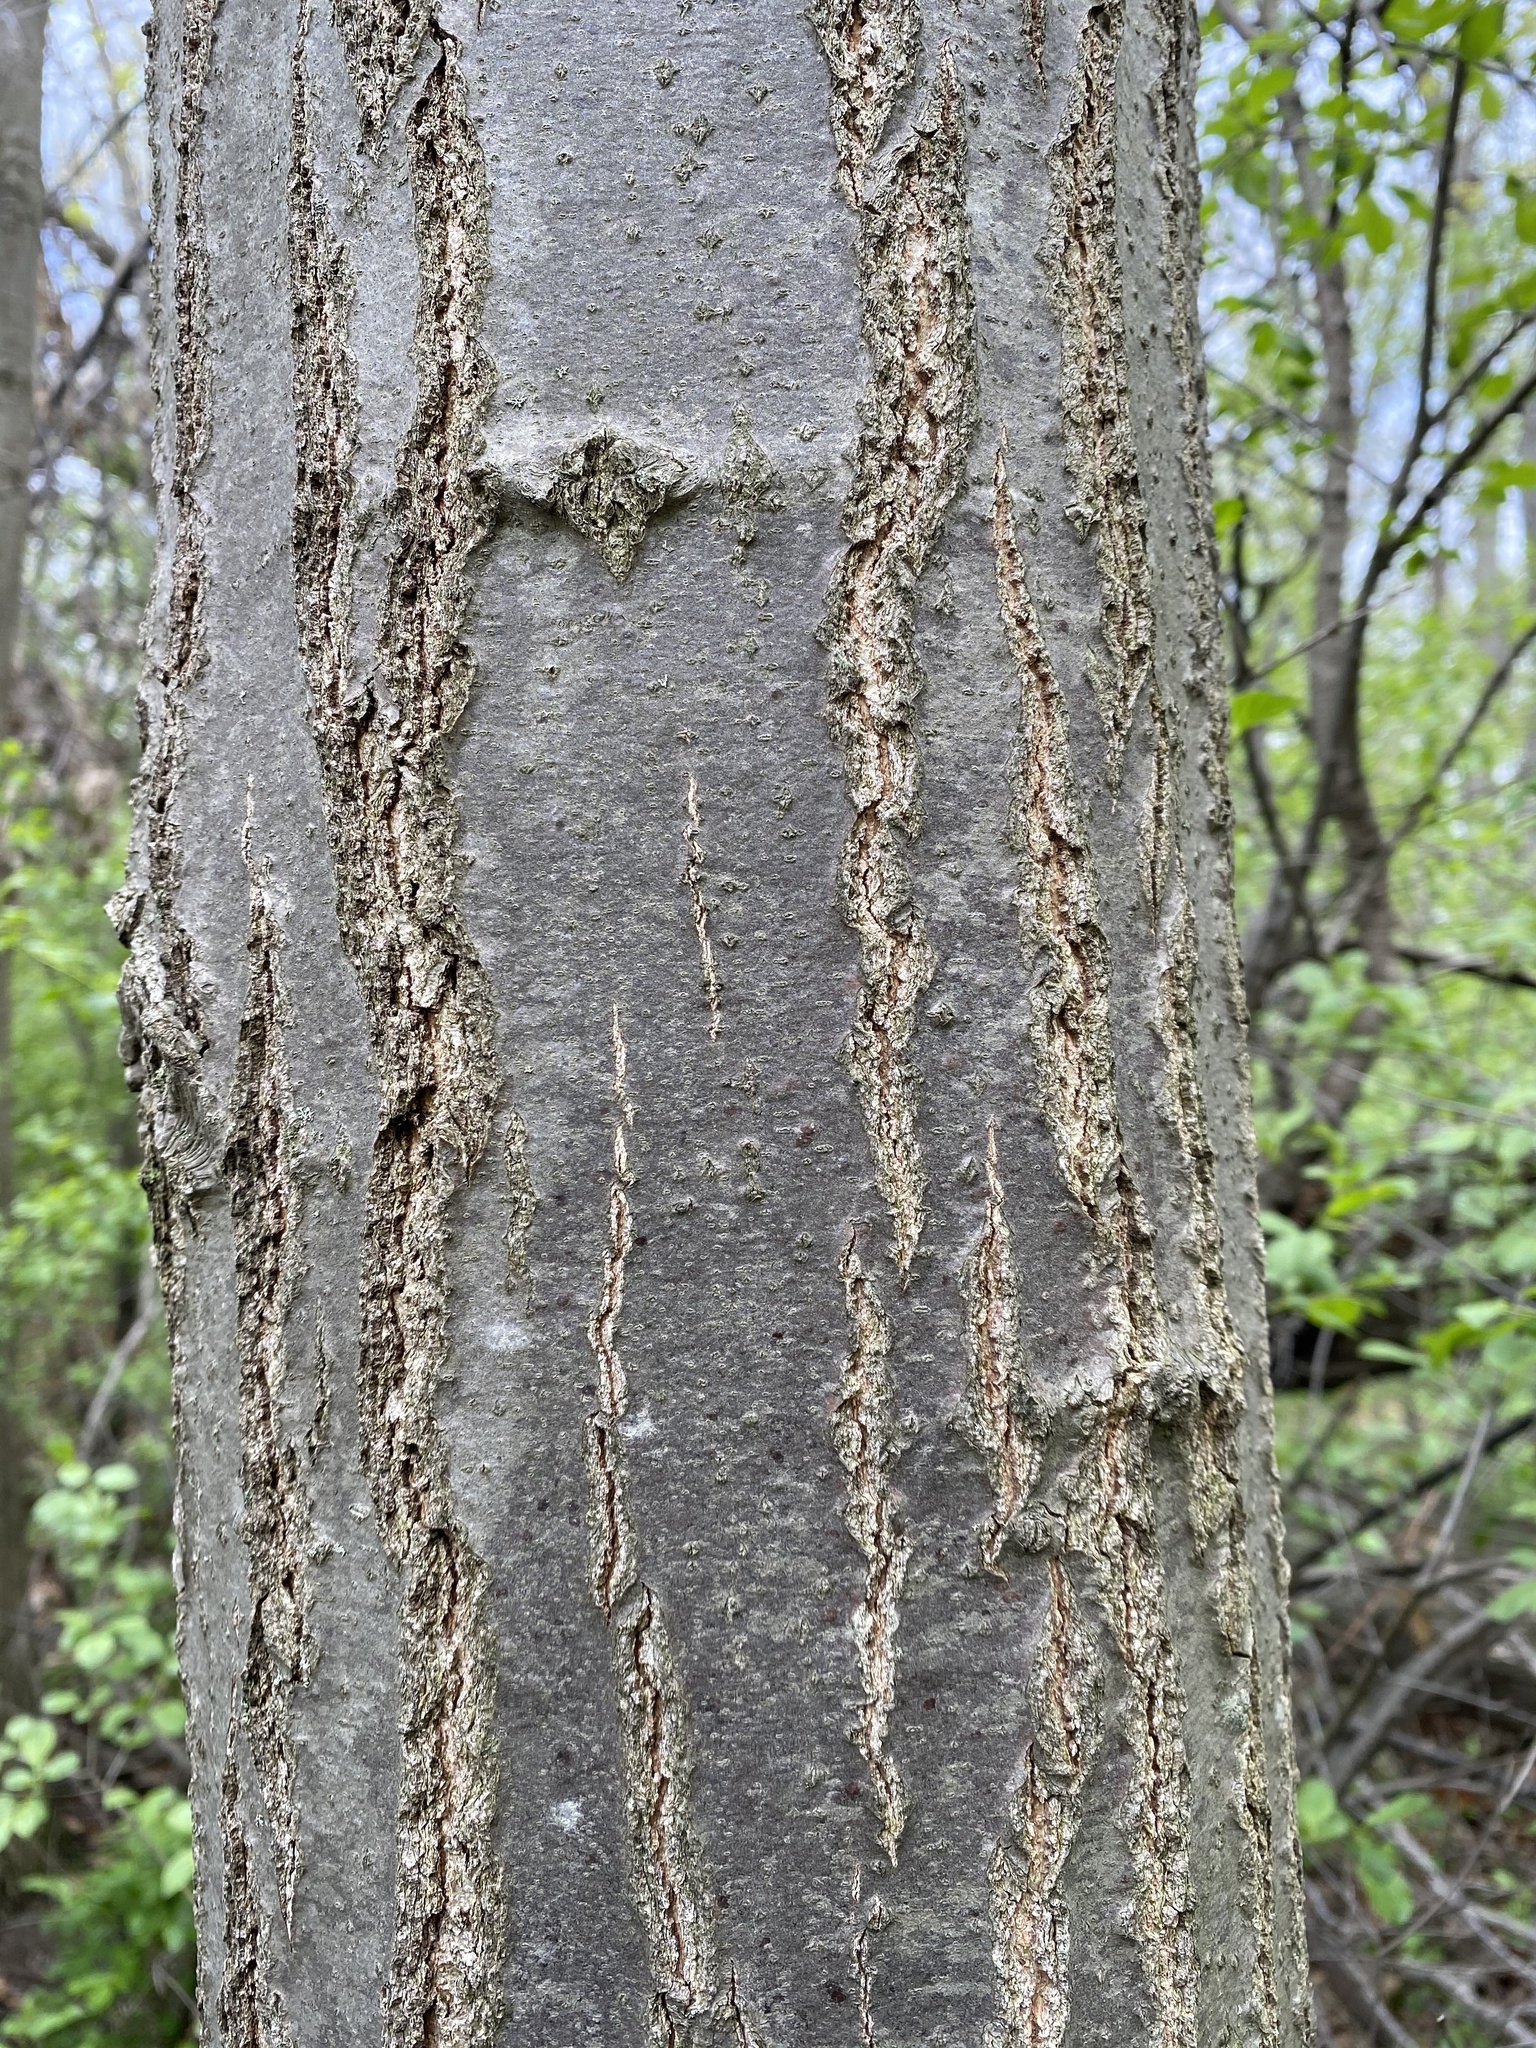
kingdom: Plantae
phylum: Tracheophyta
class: Magnoliopsida
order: Fagales
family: Fagaceae
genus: Quercus
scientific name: Quercus palustris
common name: Pin oak
